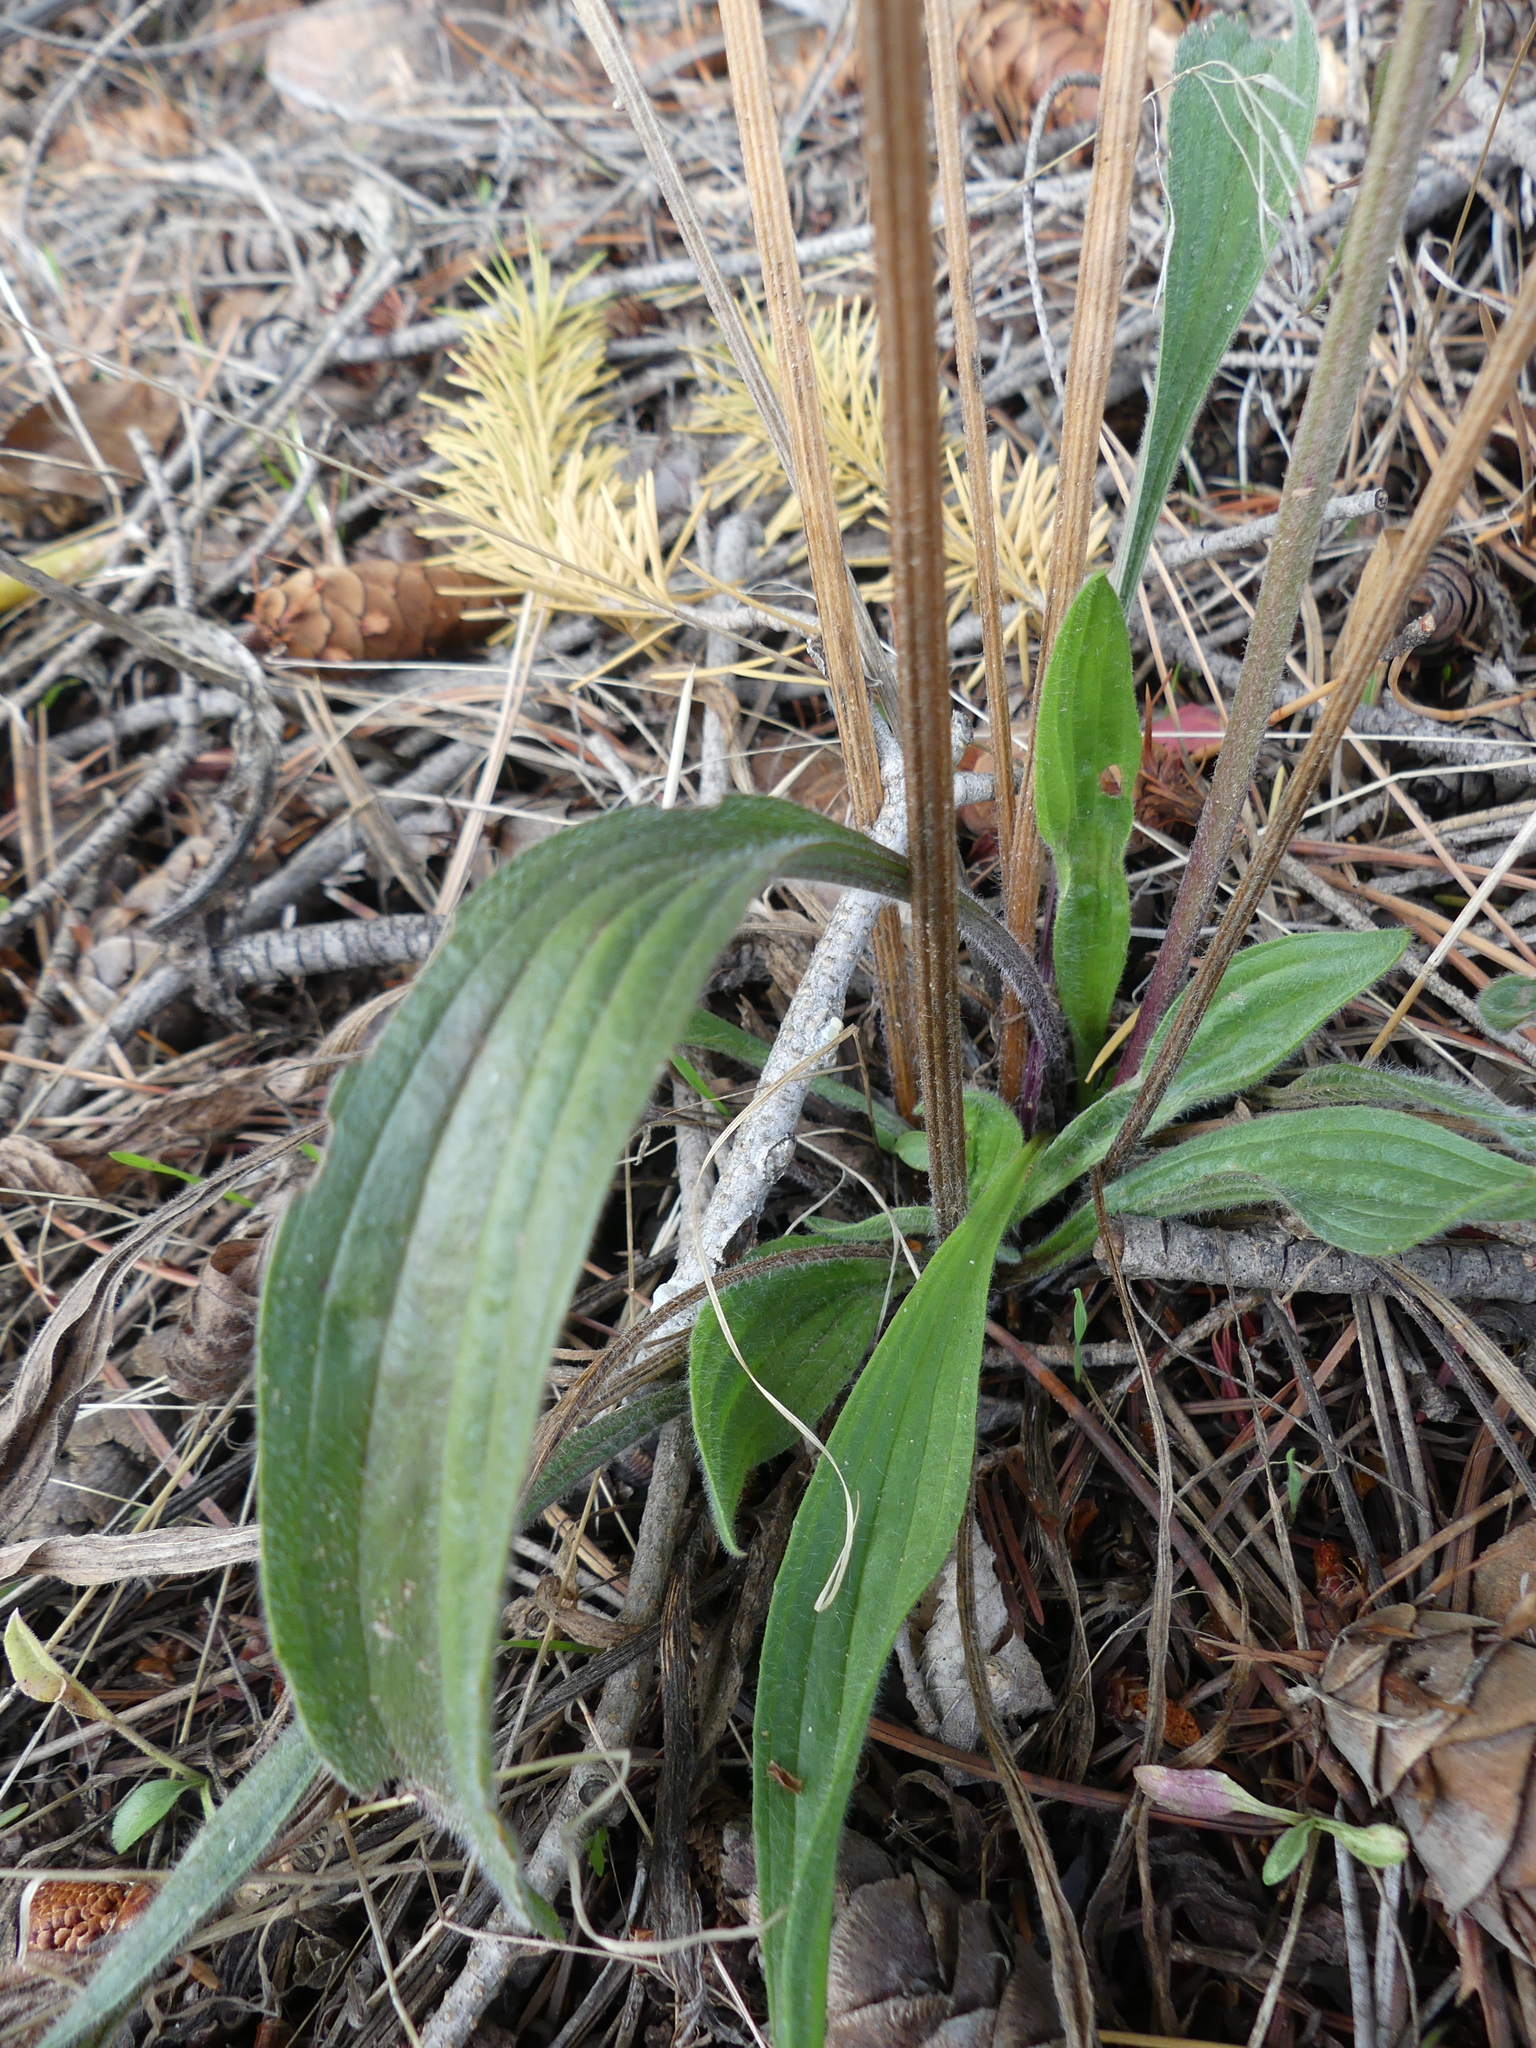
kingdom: Plantae
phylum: Tracheophyta
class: Magnoliopsida
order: Lamiales
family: Plantaginaceae
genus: Plantago
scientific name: Plantago lanceolata
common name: Ribwort plantain
